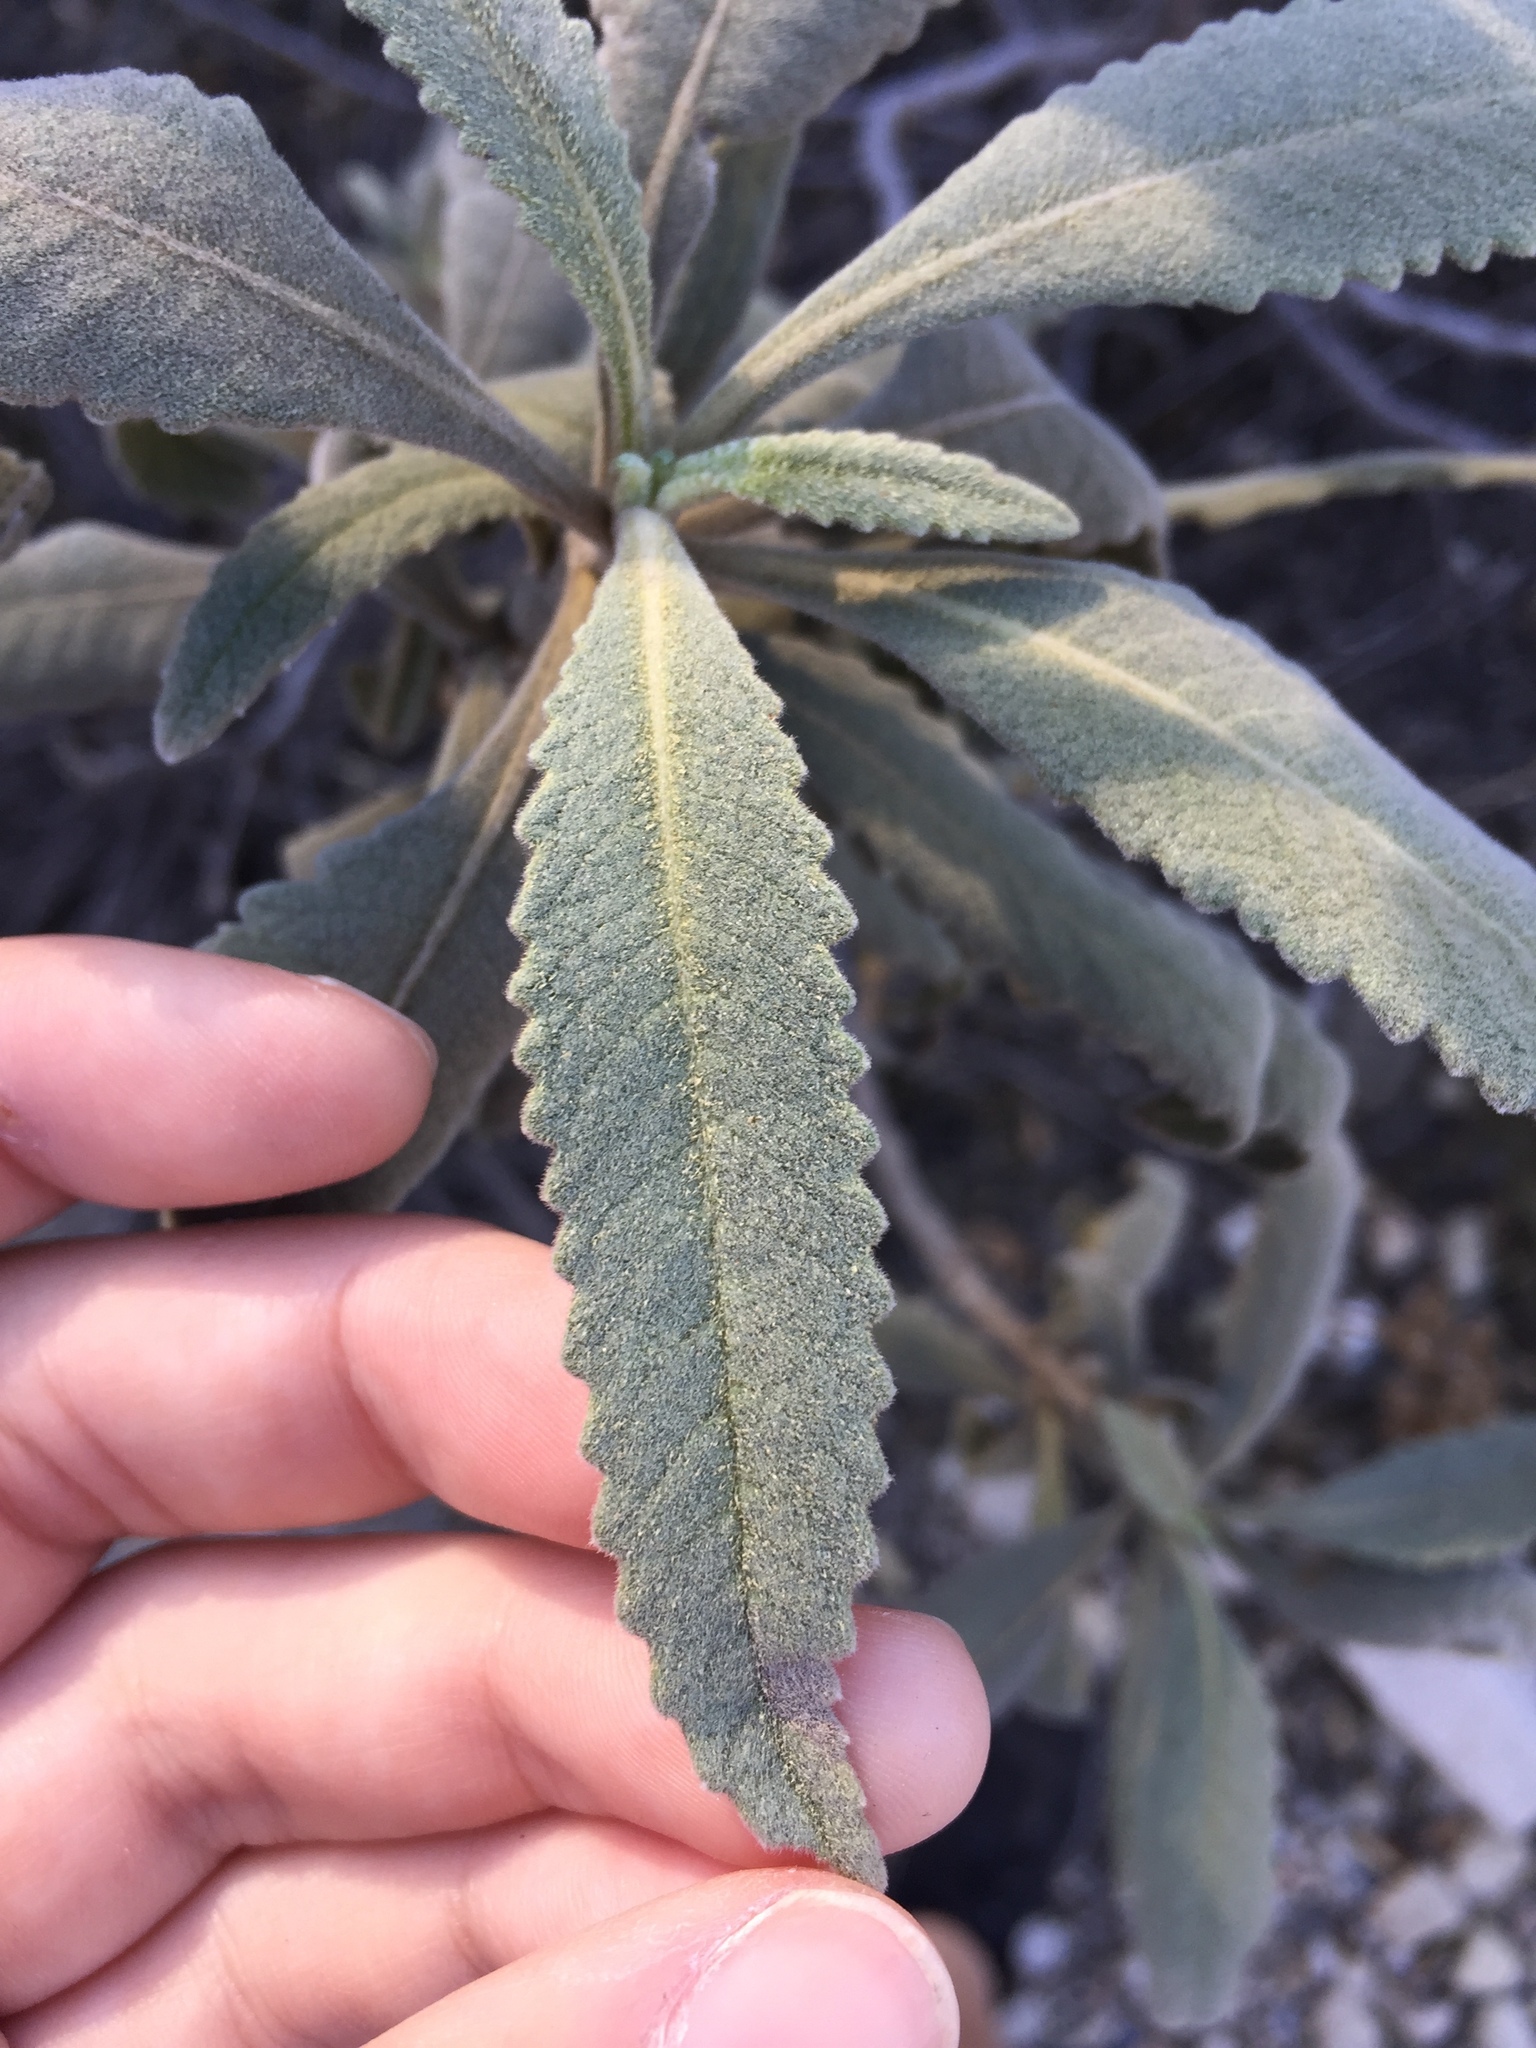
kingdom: Plantae
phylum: Tracheophyta
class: Magnoliopsida
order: Boraginales
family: Namaceae
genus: Eriodictyon
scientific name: Eriodictyon crassifolium
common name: Thick-leaf yerba-santa
